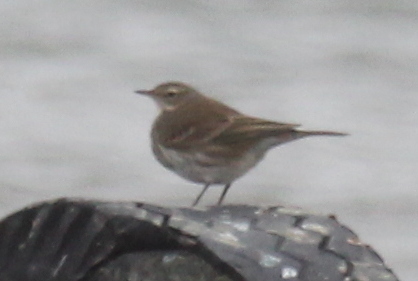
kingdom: Animalia
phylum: Chordata
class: Aves
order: Passeriformes
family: Motacillidae
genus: Anthus
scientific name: Anthus spinoletta
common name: Water pipit
